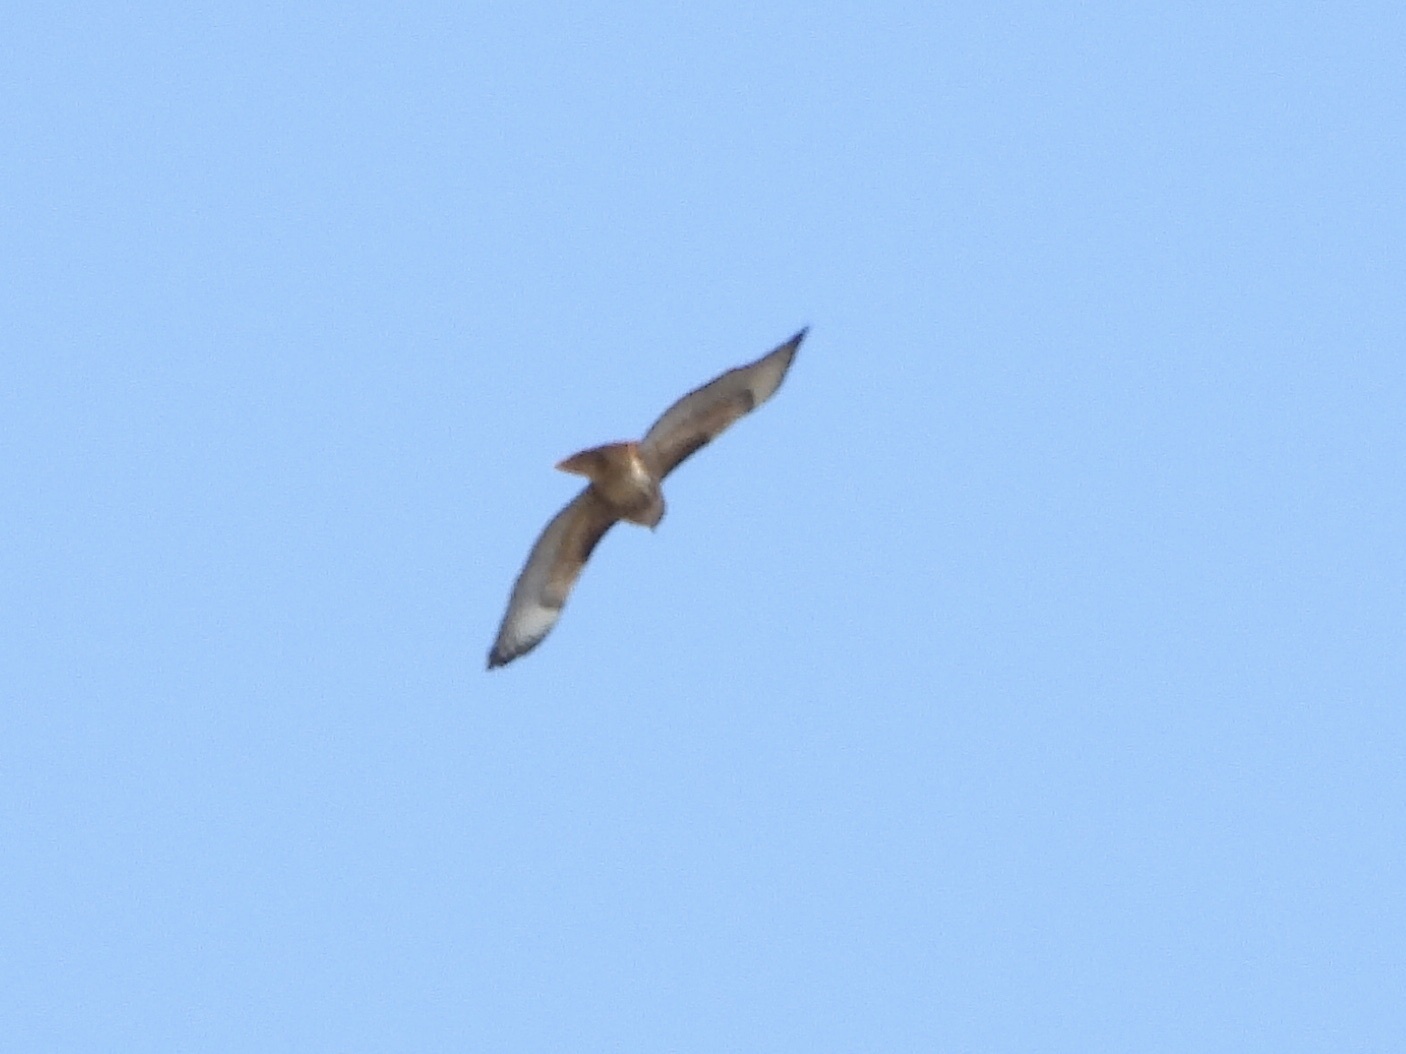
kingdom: Animalia
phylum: Chordata
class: Aves
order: Accipitriformes
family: Accipitridae
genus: Buteo
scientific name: Buteo jamaicensis
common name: Red-tailed hawk
